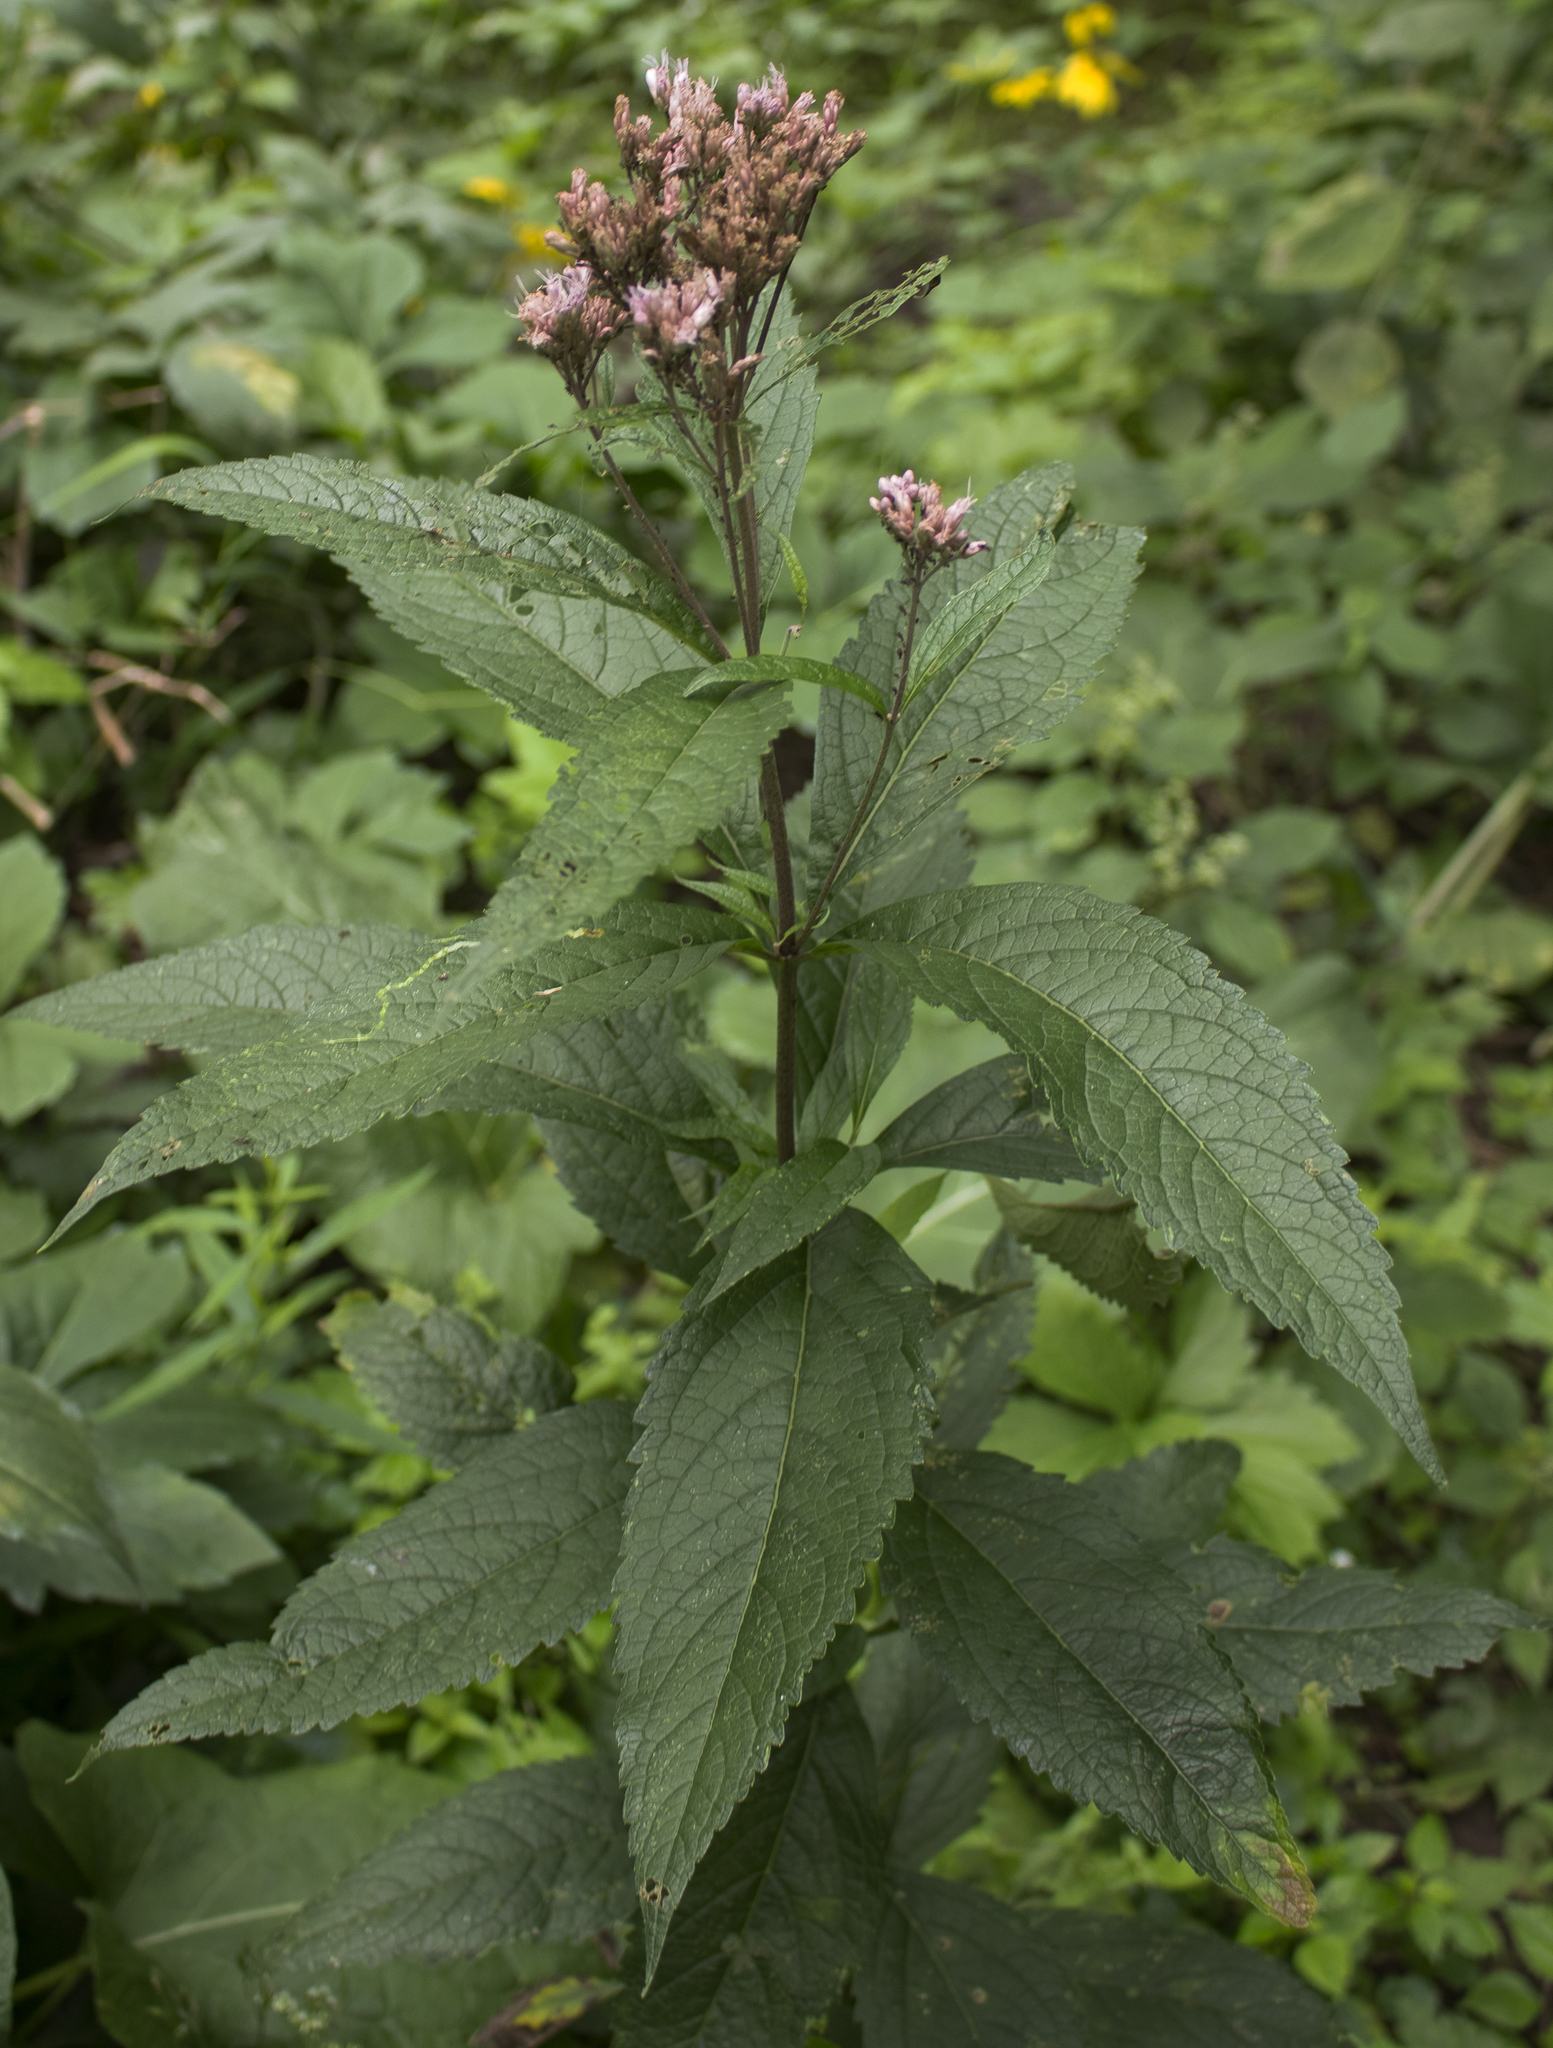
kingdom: Plantae
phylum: Tracheophyta
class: Magnoliopsida
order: Asterales
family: Asteraceae
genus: Eutrochium
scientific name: Eutrochium maculatum
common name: Spotted joe pye weed
